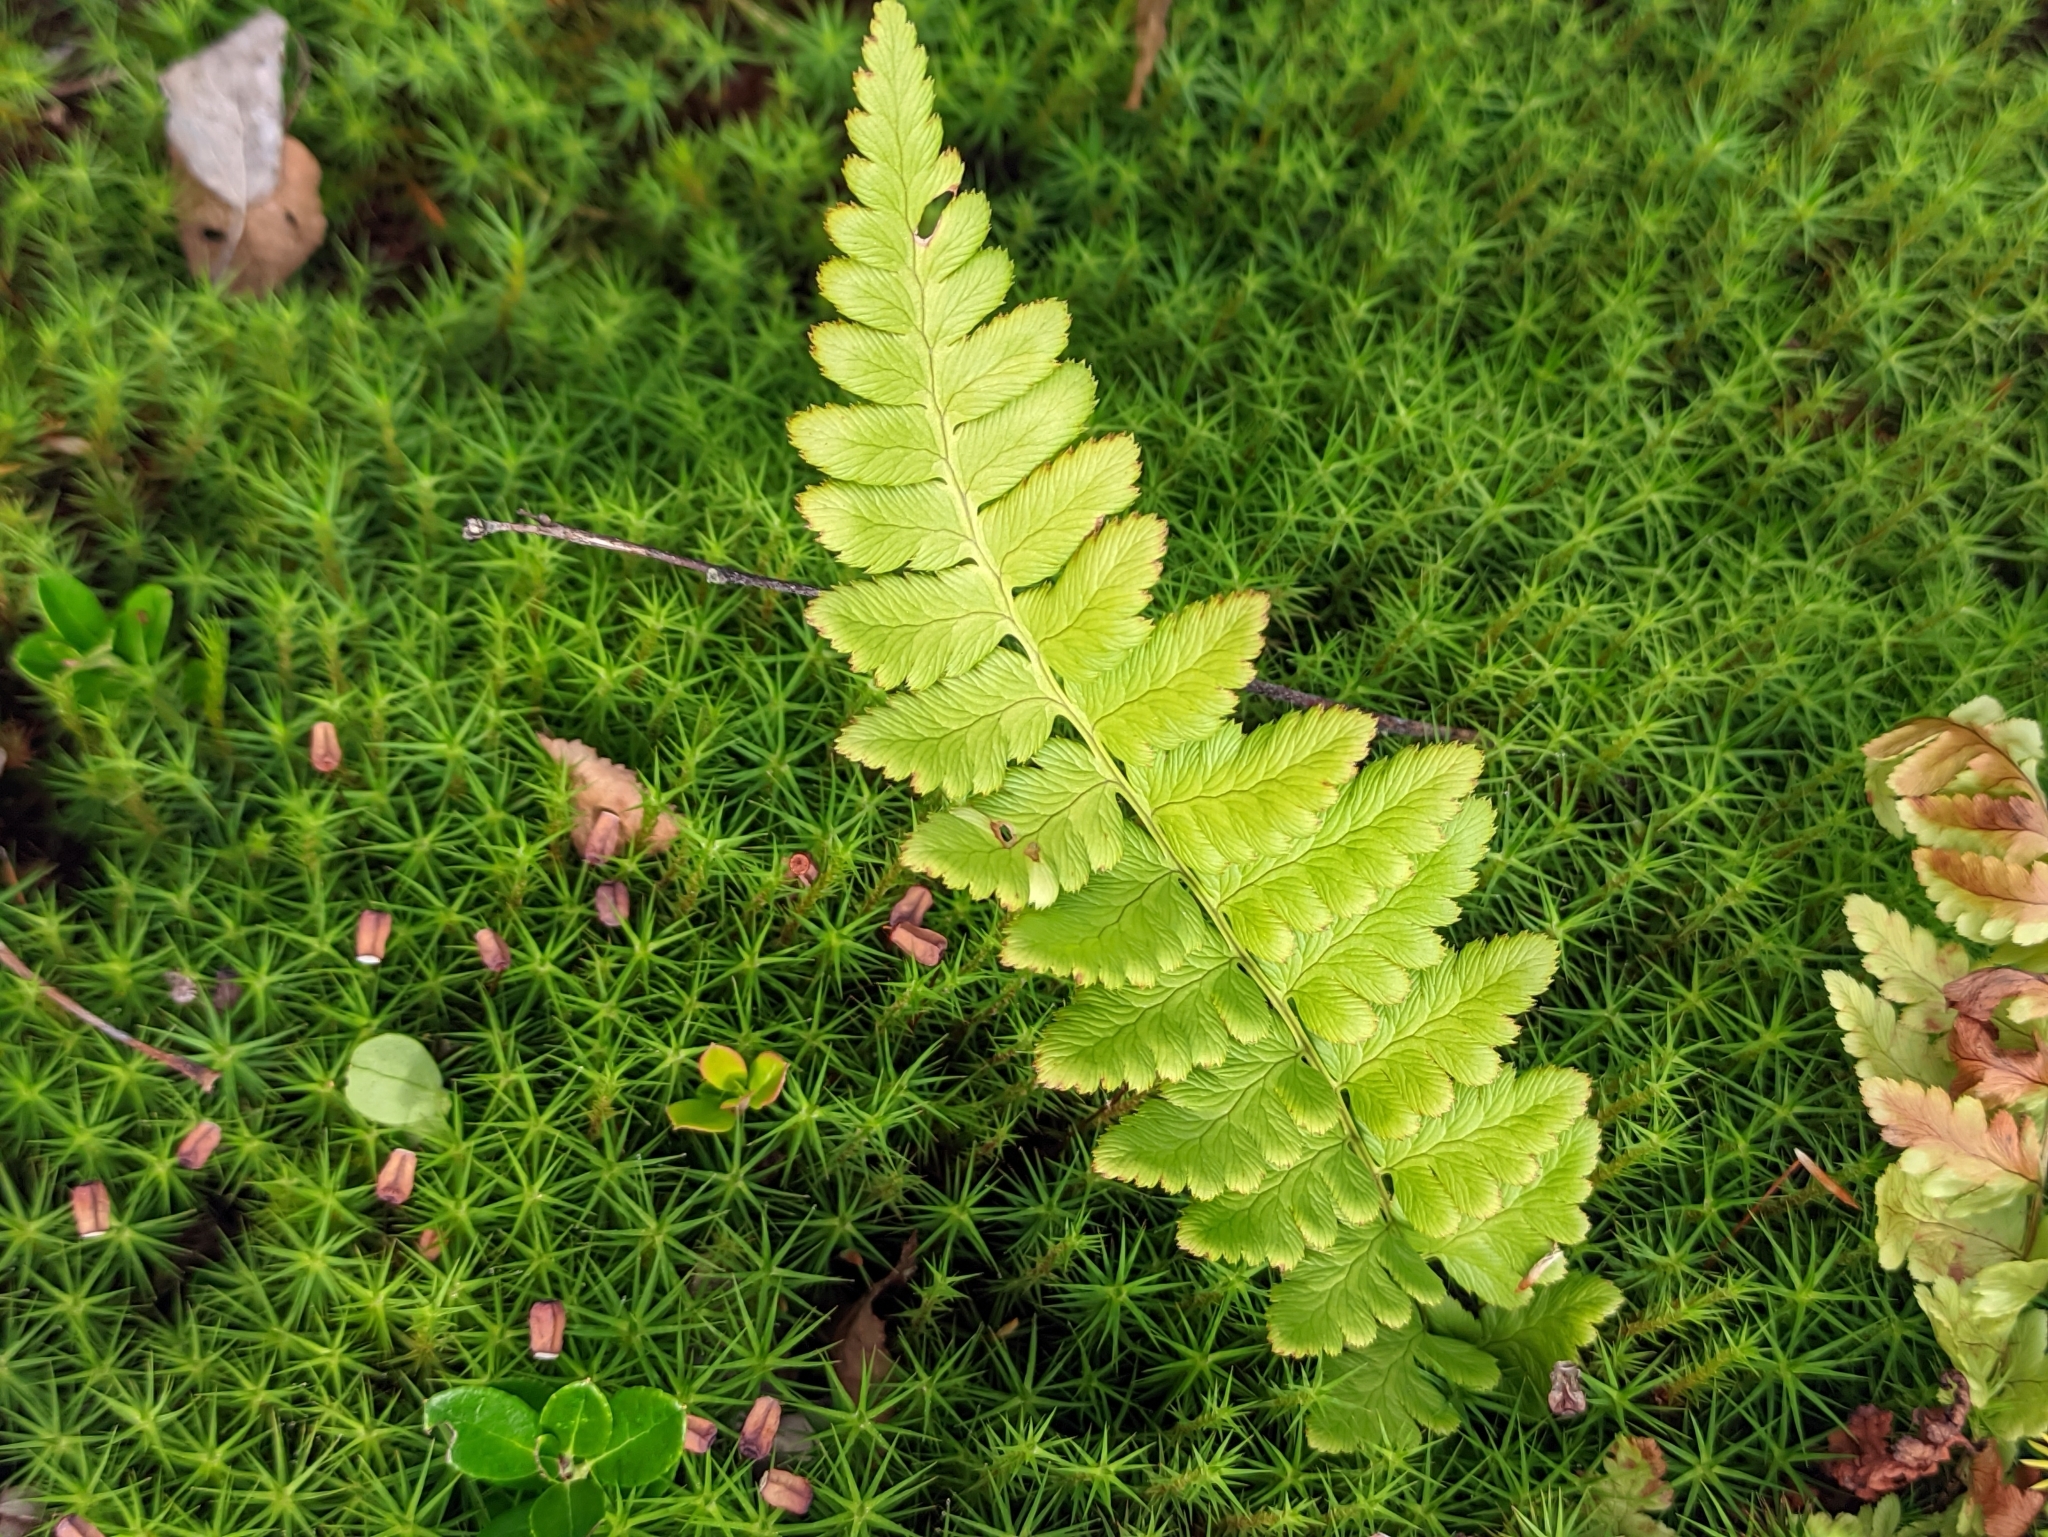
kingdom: Plantae
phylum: Tracheophyta
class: Polypodiopsida
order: Polypodiales
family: Dryopteridaceae
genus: Dryopteris
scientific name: Dryopteris cristata
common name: Crested wood fern
